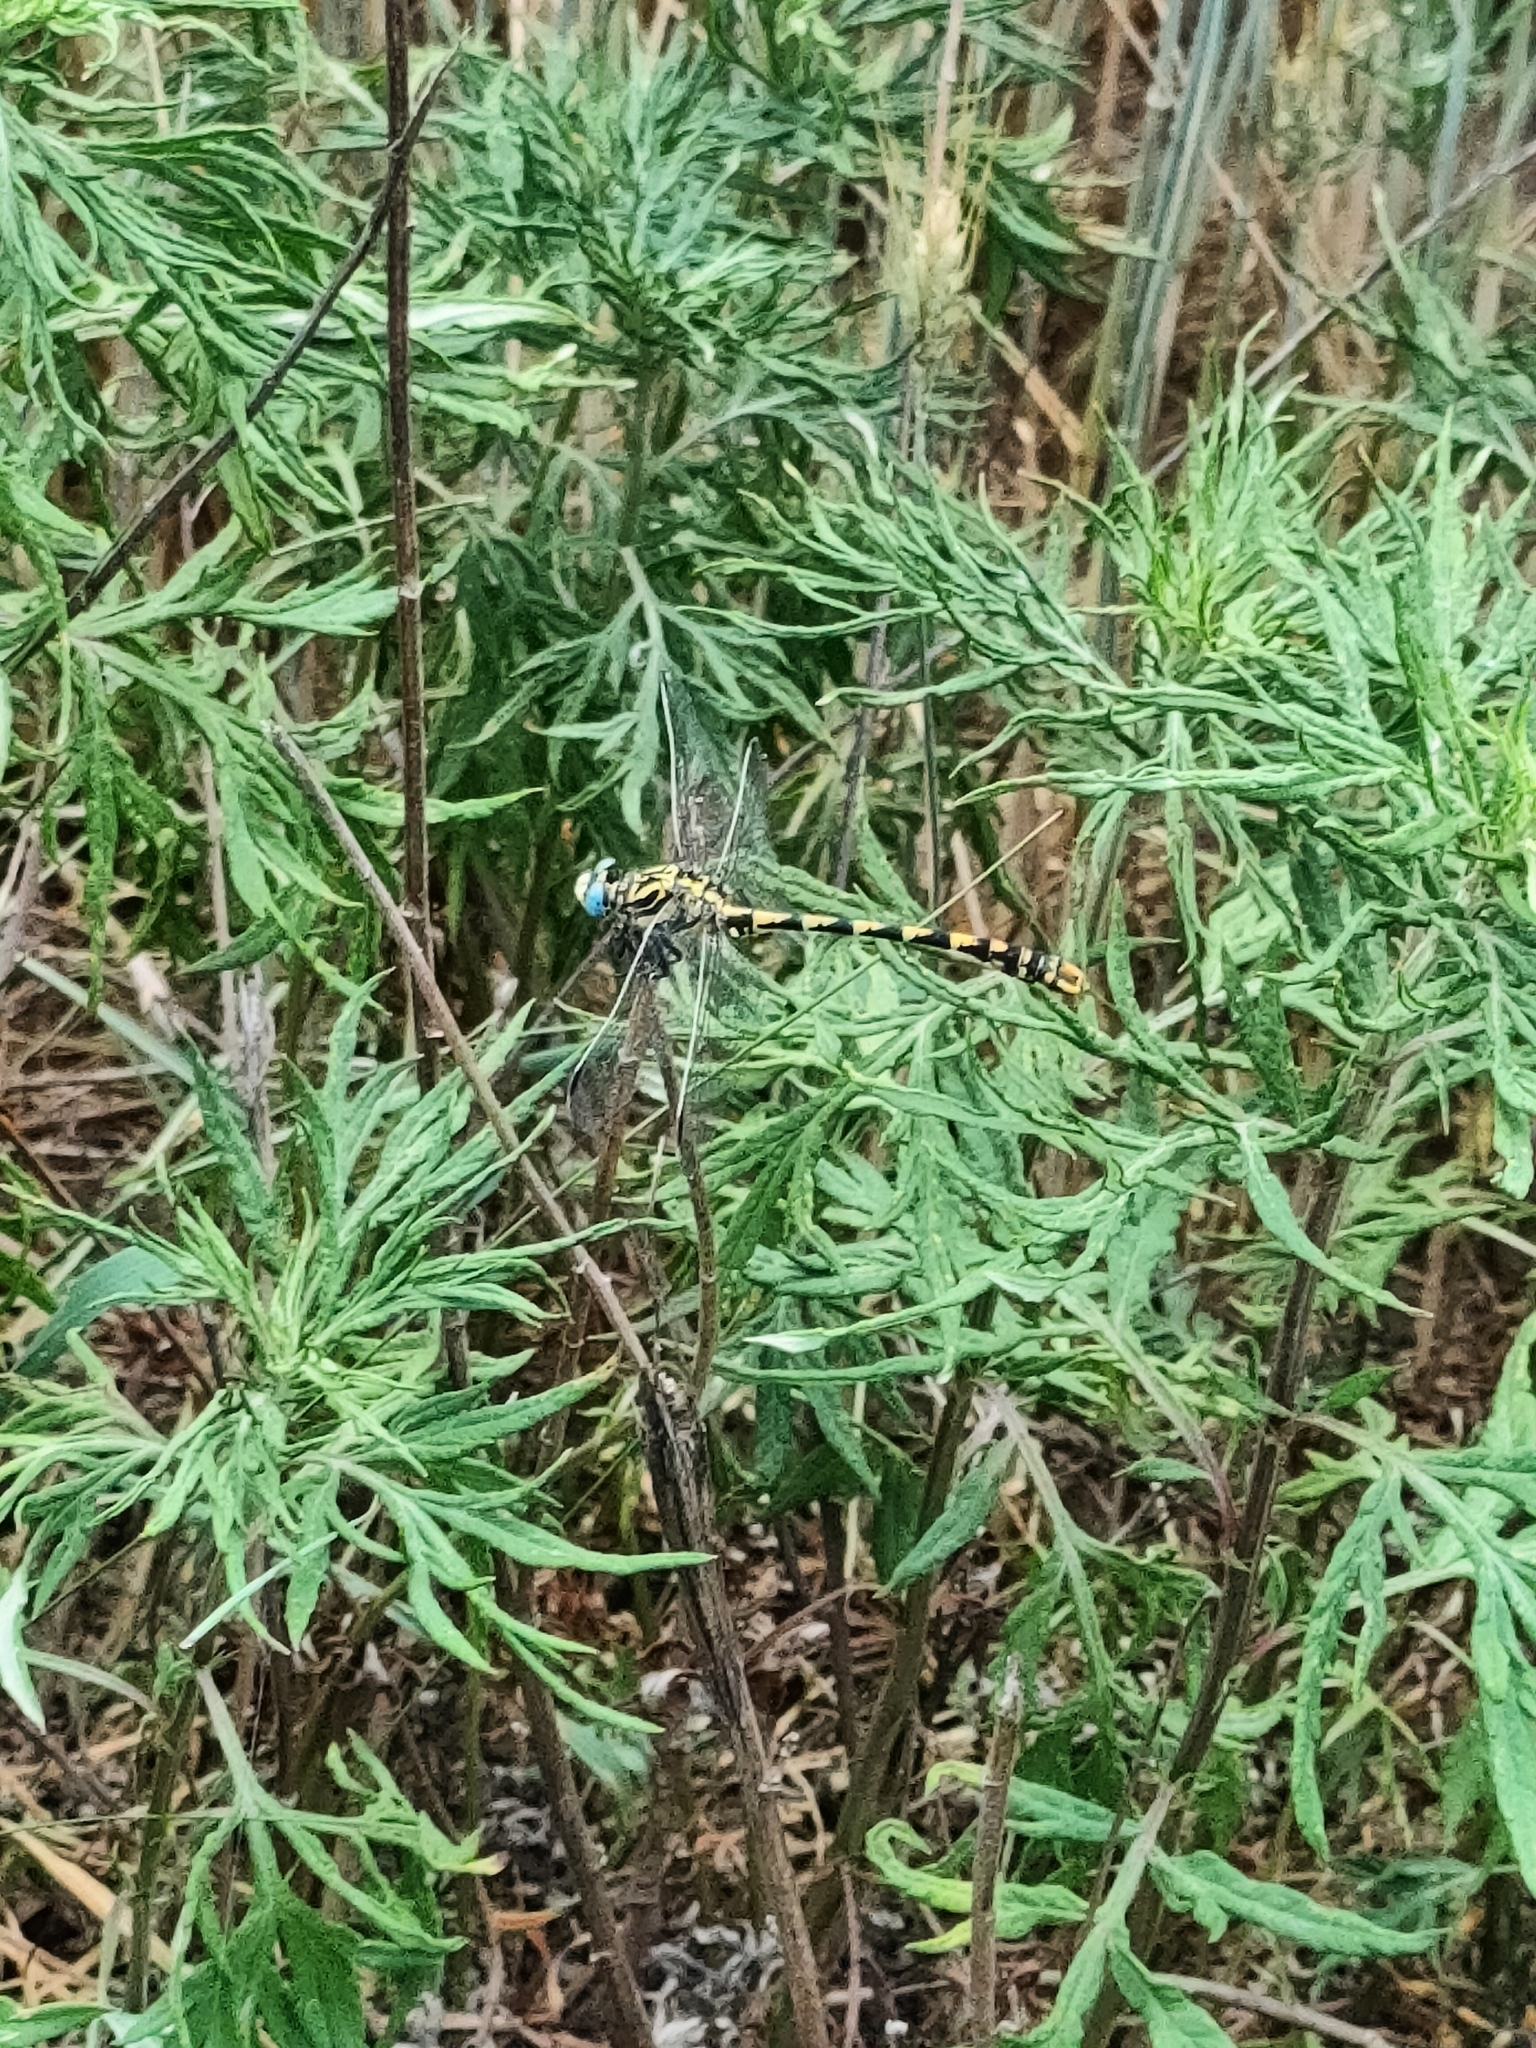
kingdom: Animalia
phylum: Arthropoda
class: Insecta
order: Odonata
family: Gomphidae
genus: Onychogomphus
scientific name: Onychogomphus uncatus
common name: Large pincertail
